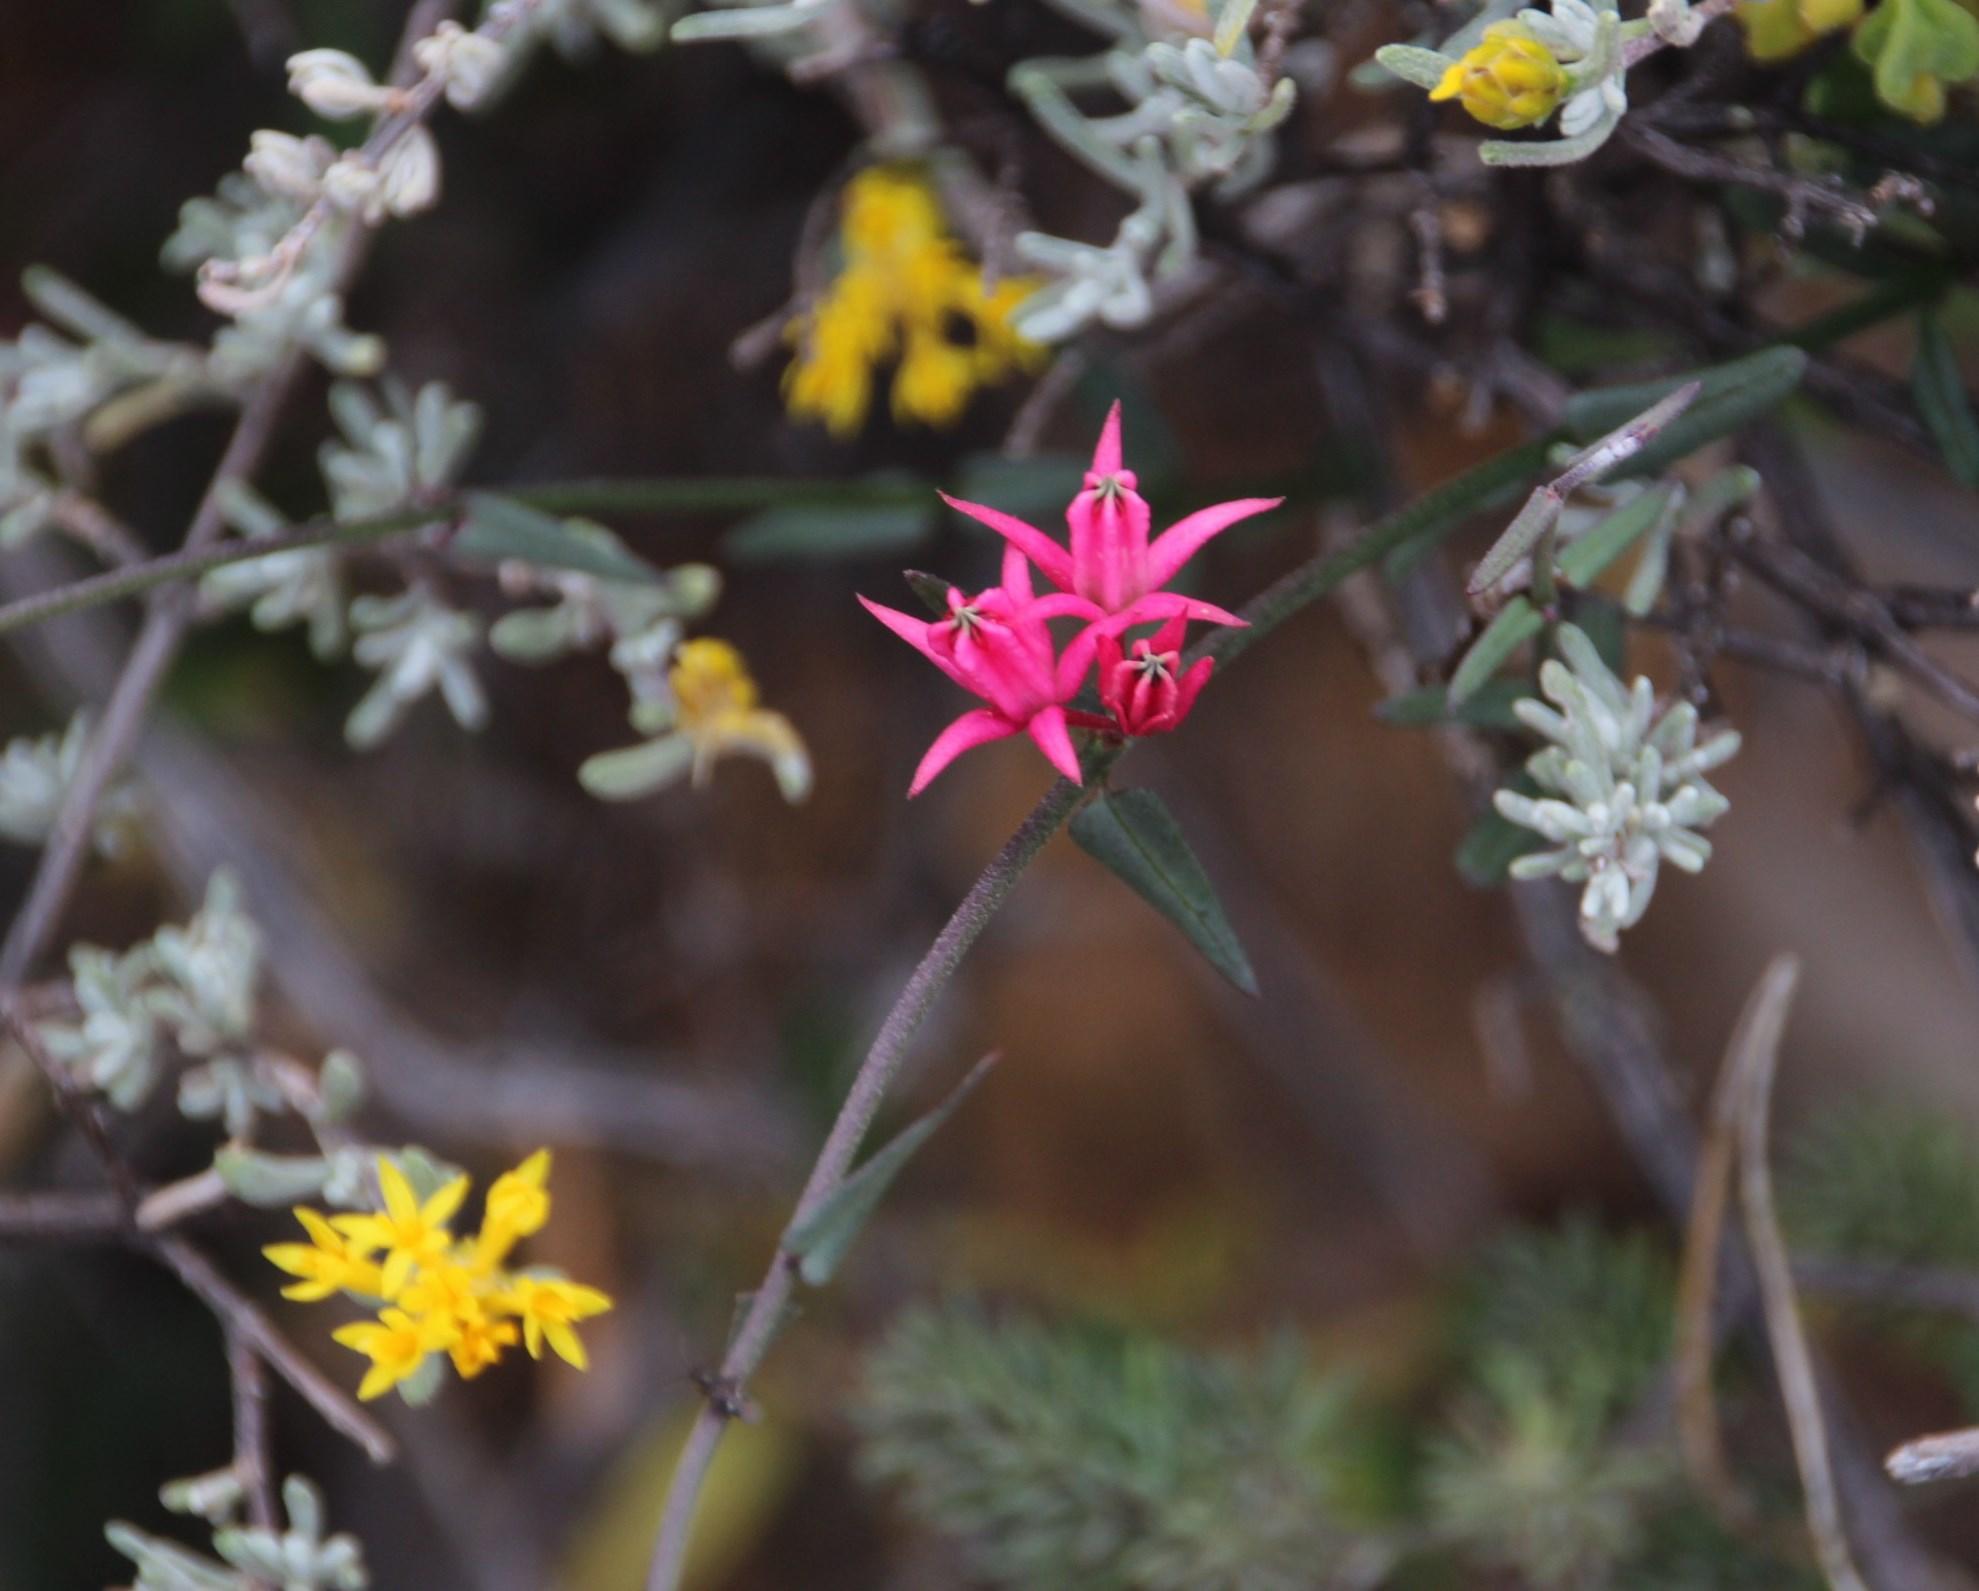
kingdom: Plantae
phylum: Tracheophyta
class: Magnoliopsida
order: Gentianales
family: Apocynaceae
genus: Microloma
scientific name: Microloma sagittatum
